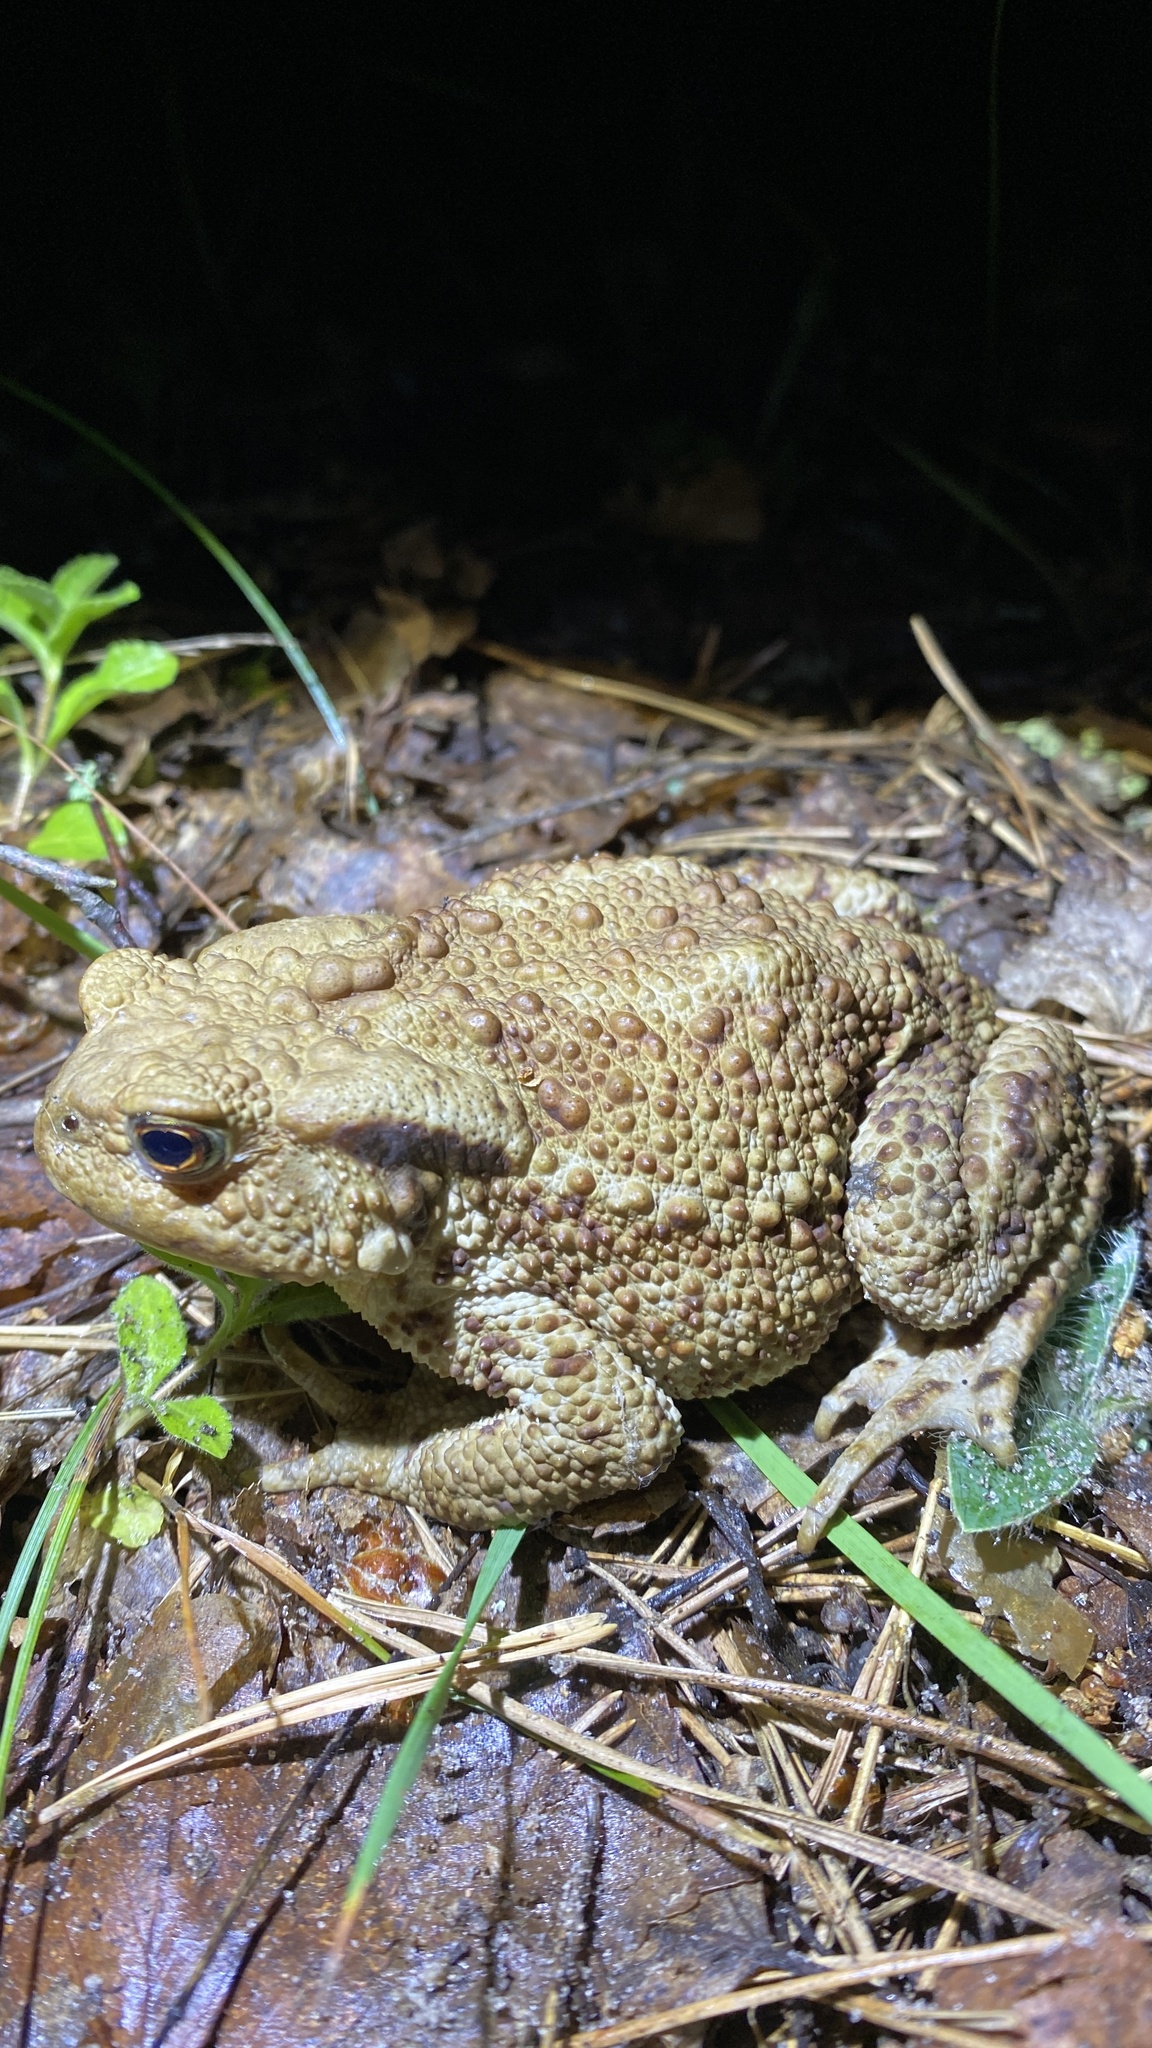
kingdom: Animalia
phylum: Chordata
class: Amphibia
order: Anura
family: Bufonidae
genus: Bufo
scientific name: Bufo bufo
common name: Common toad
